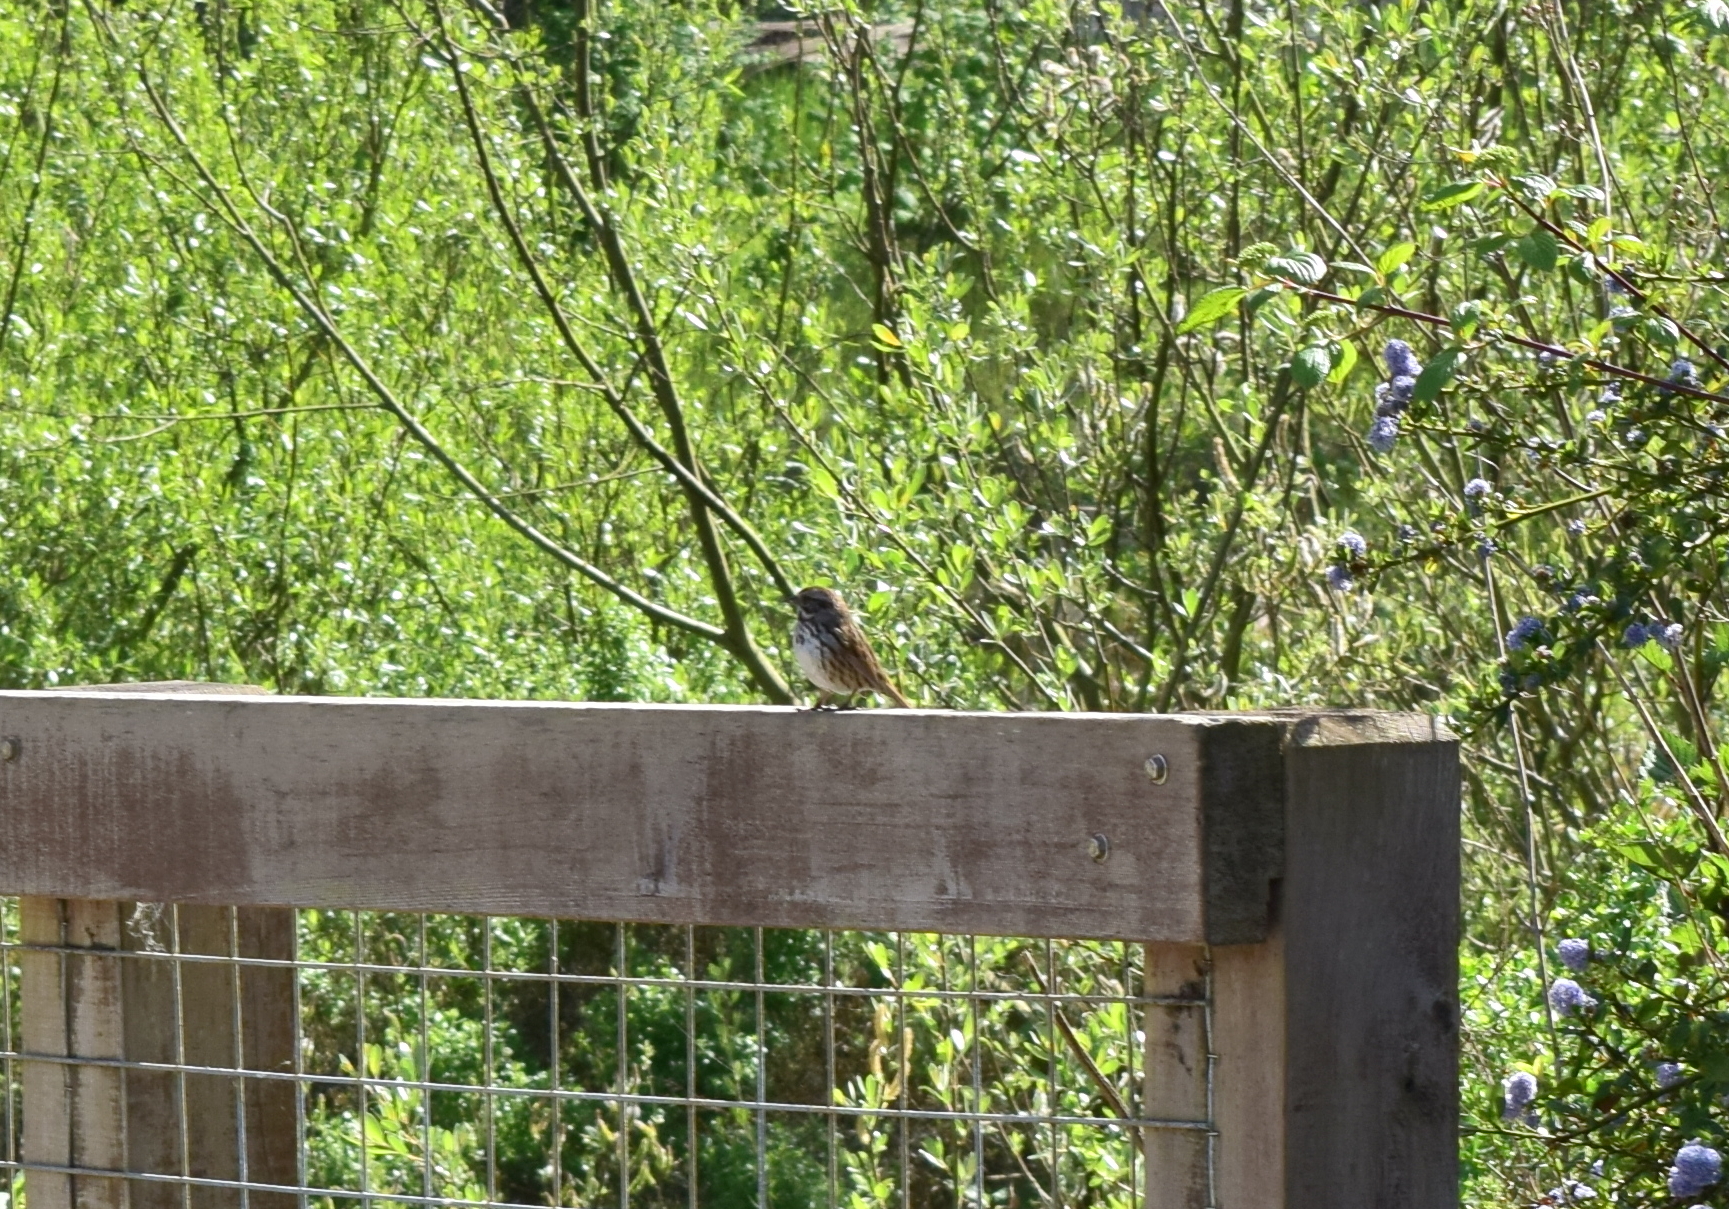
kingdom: Animalia
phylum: Chordata
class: Aves
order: Passeriformes
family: Passerellidae
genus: Melospiza
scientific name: Melospiza melodia
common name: Song sparrow
